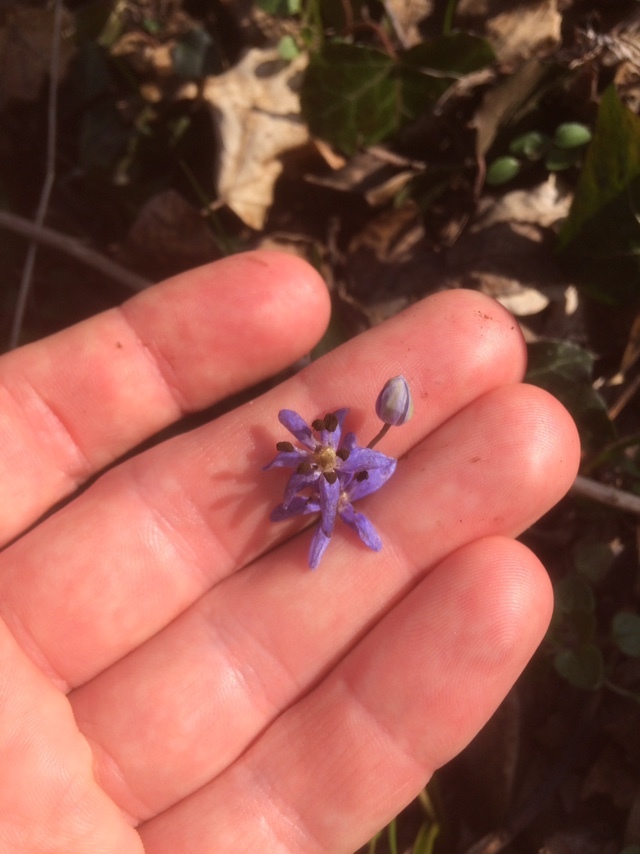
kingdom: Plantae
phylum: Tracheophyta
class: Liliopsida
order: Asparagales
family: Asparagaceae
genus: Scilla
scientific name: Scilla vindobonensis
